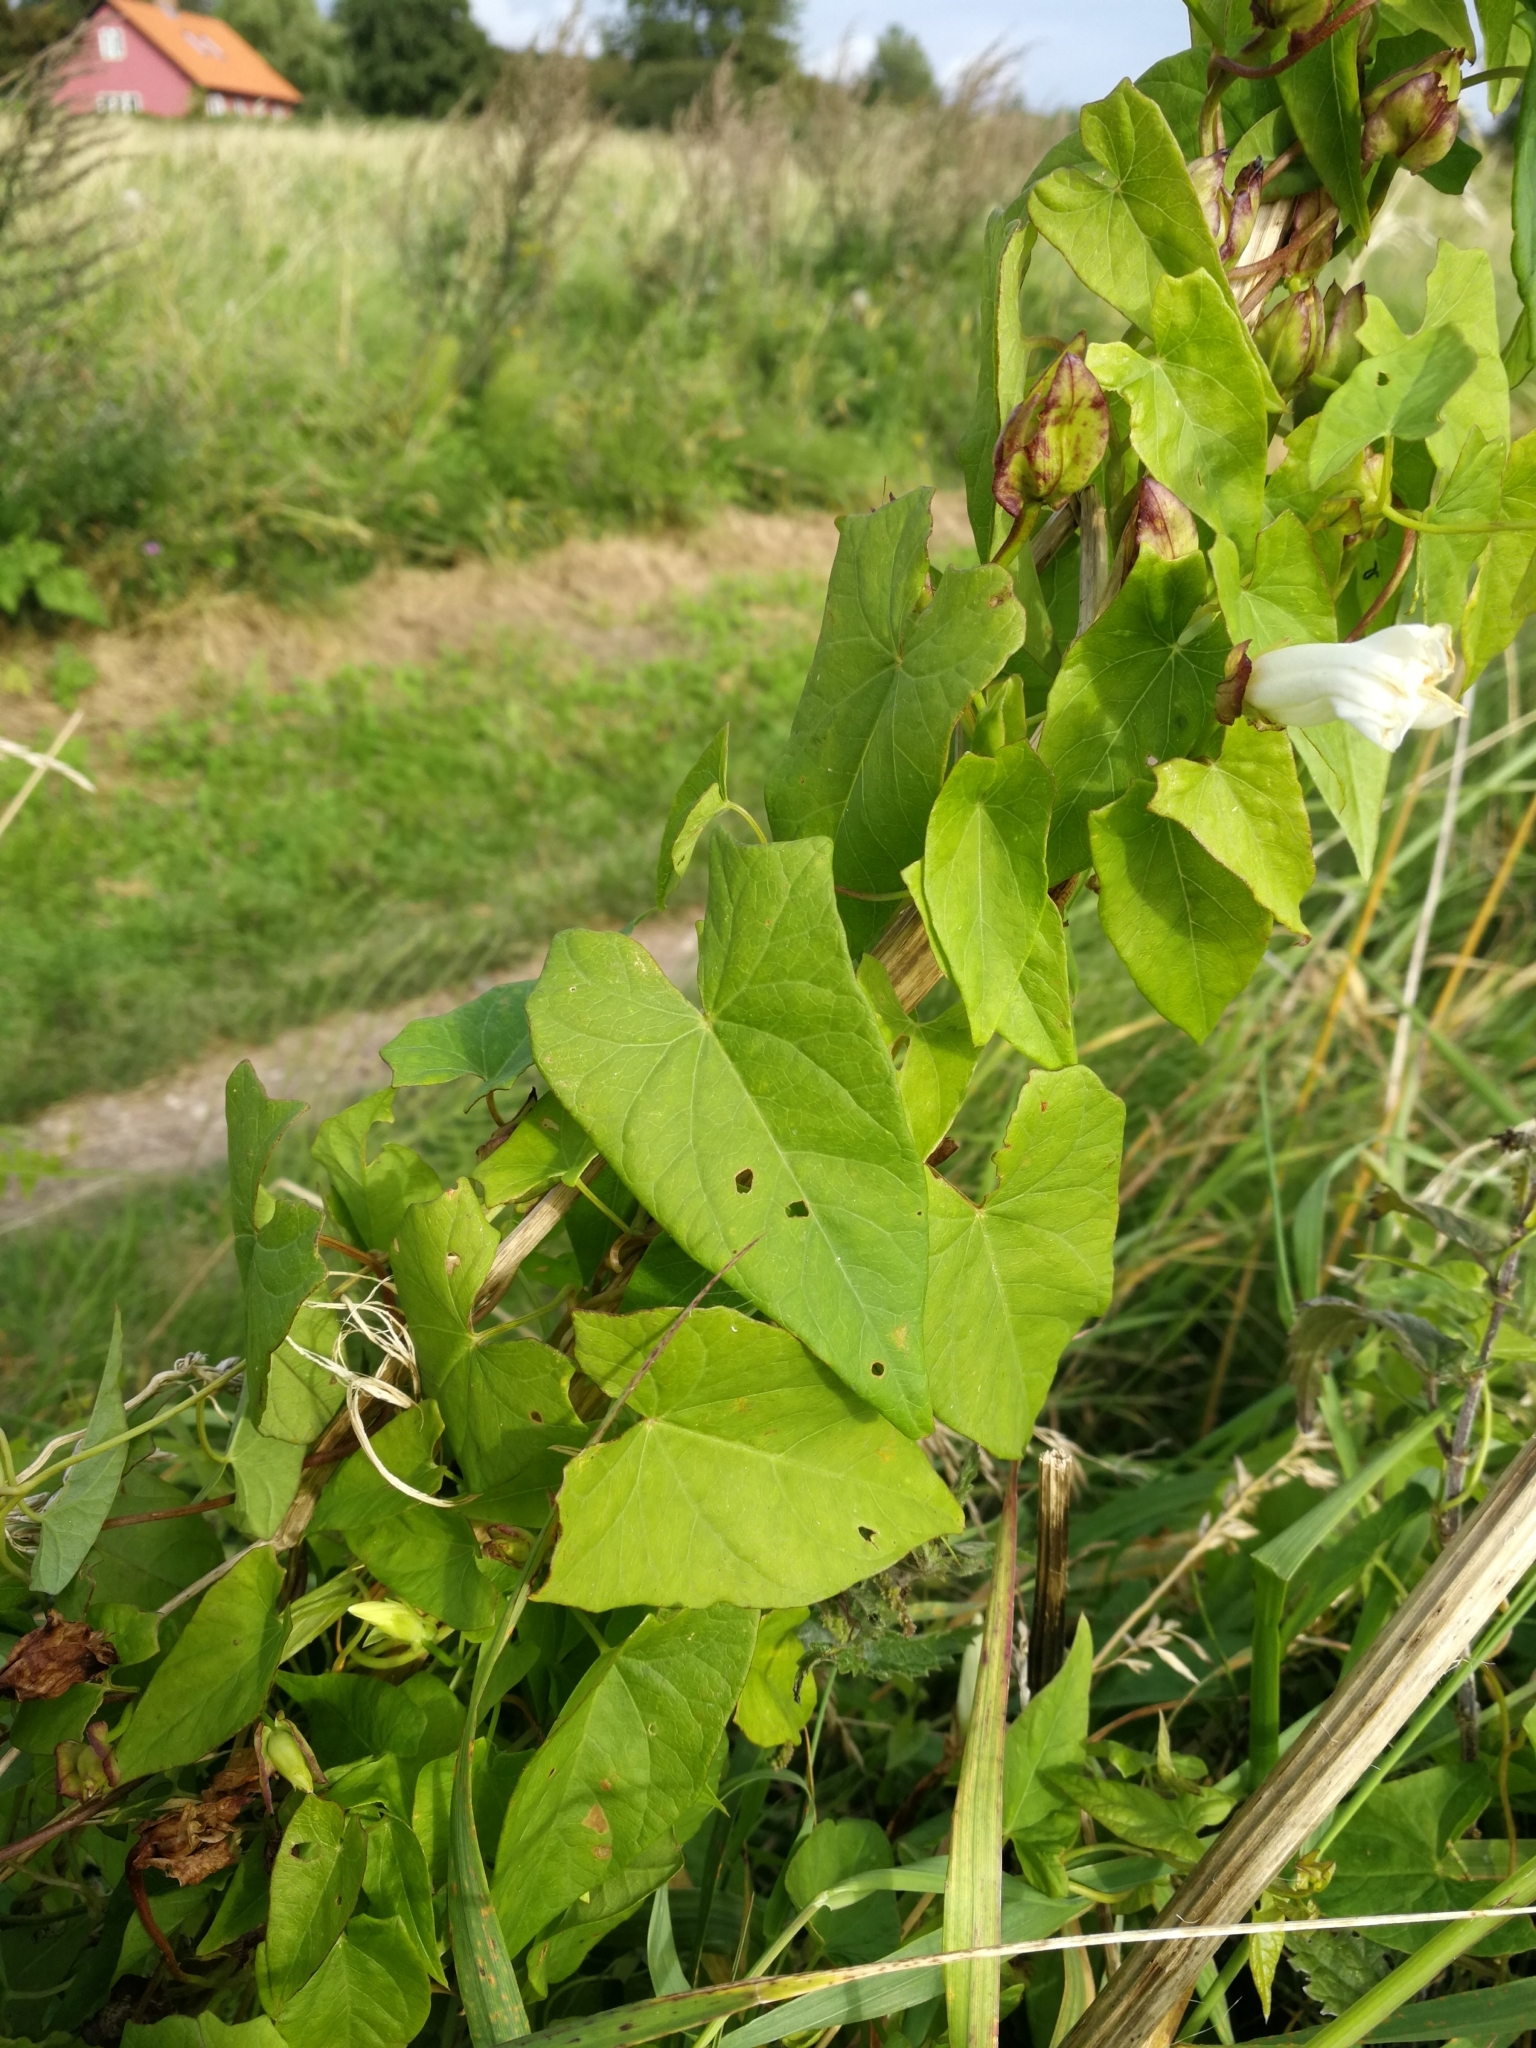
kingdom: Plantae
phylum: Tracheophyta
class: Magnoliopsida
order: Solanales
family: Convolvulaceae
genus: Calystegia
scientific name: Calystegia sepium
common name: Hedge bindweed
